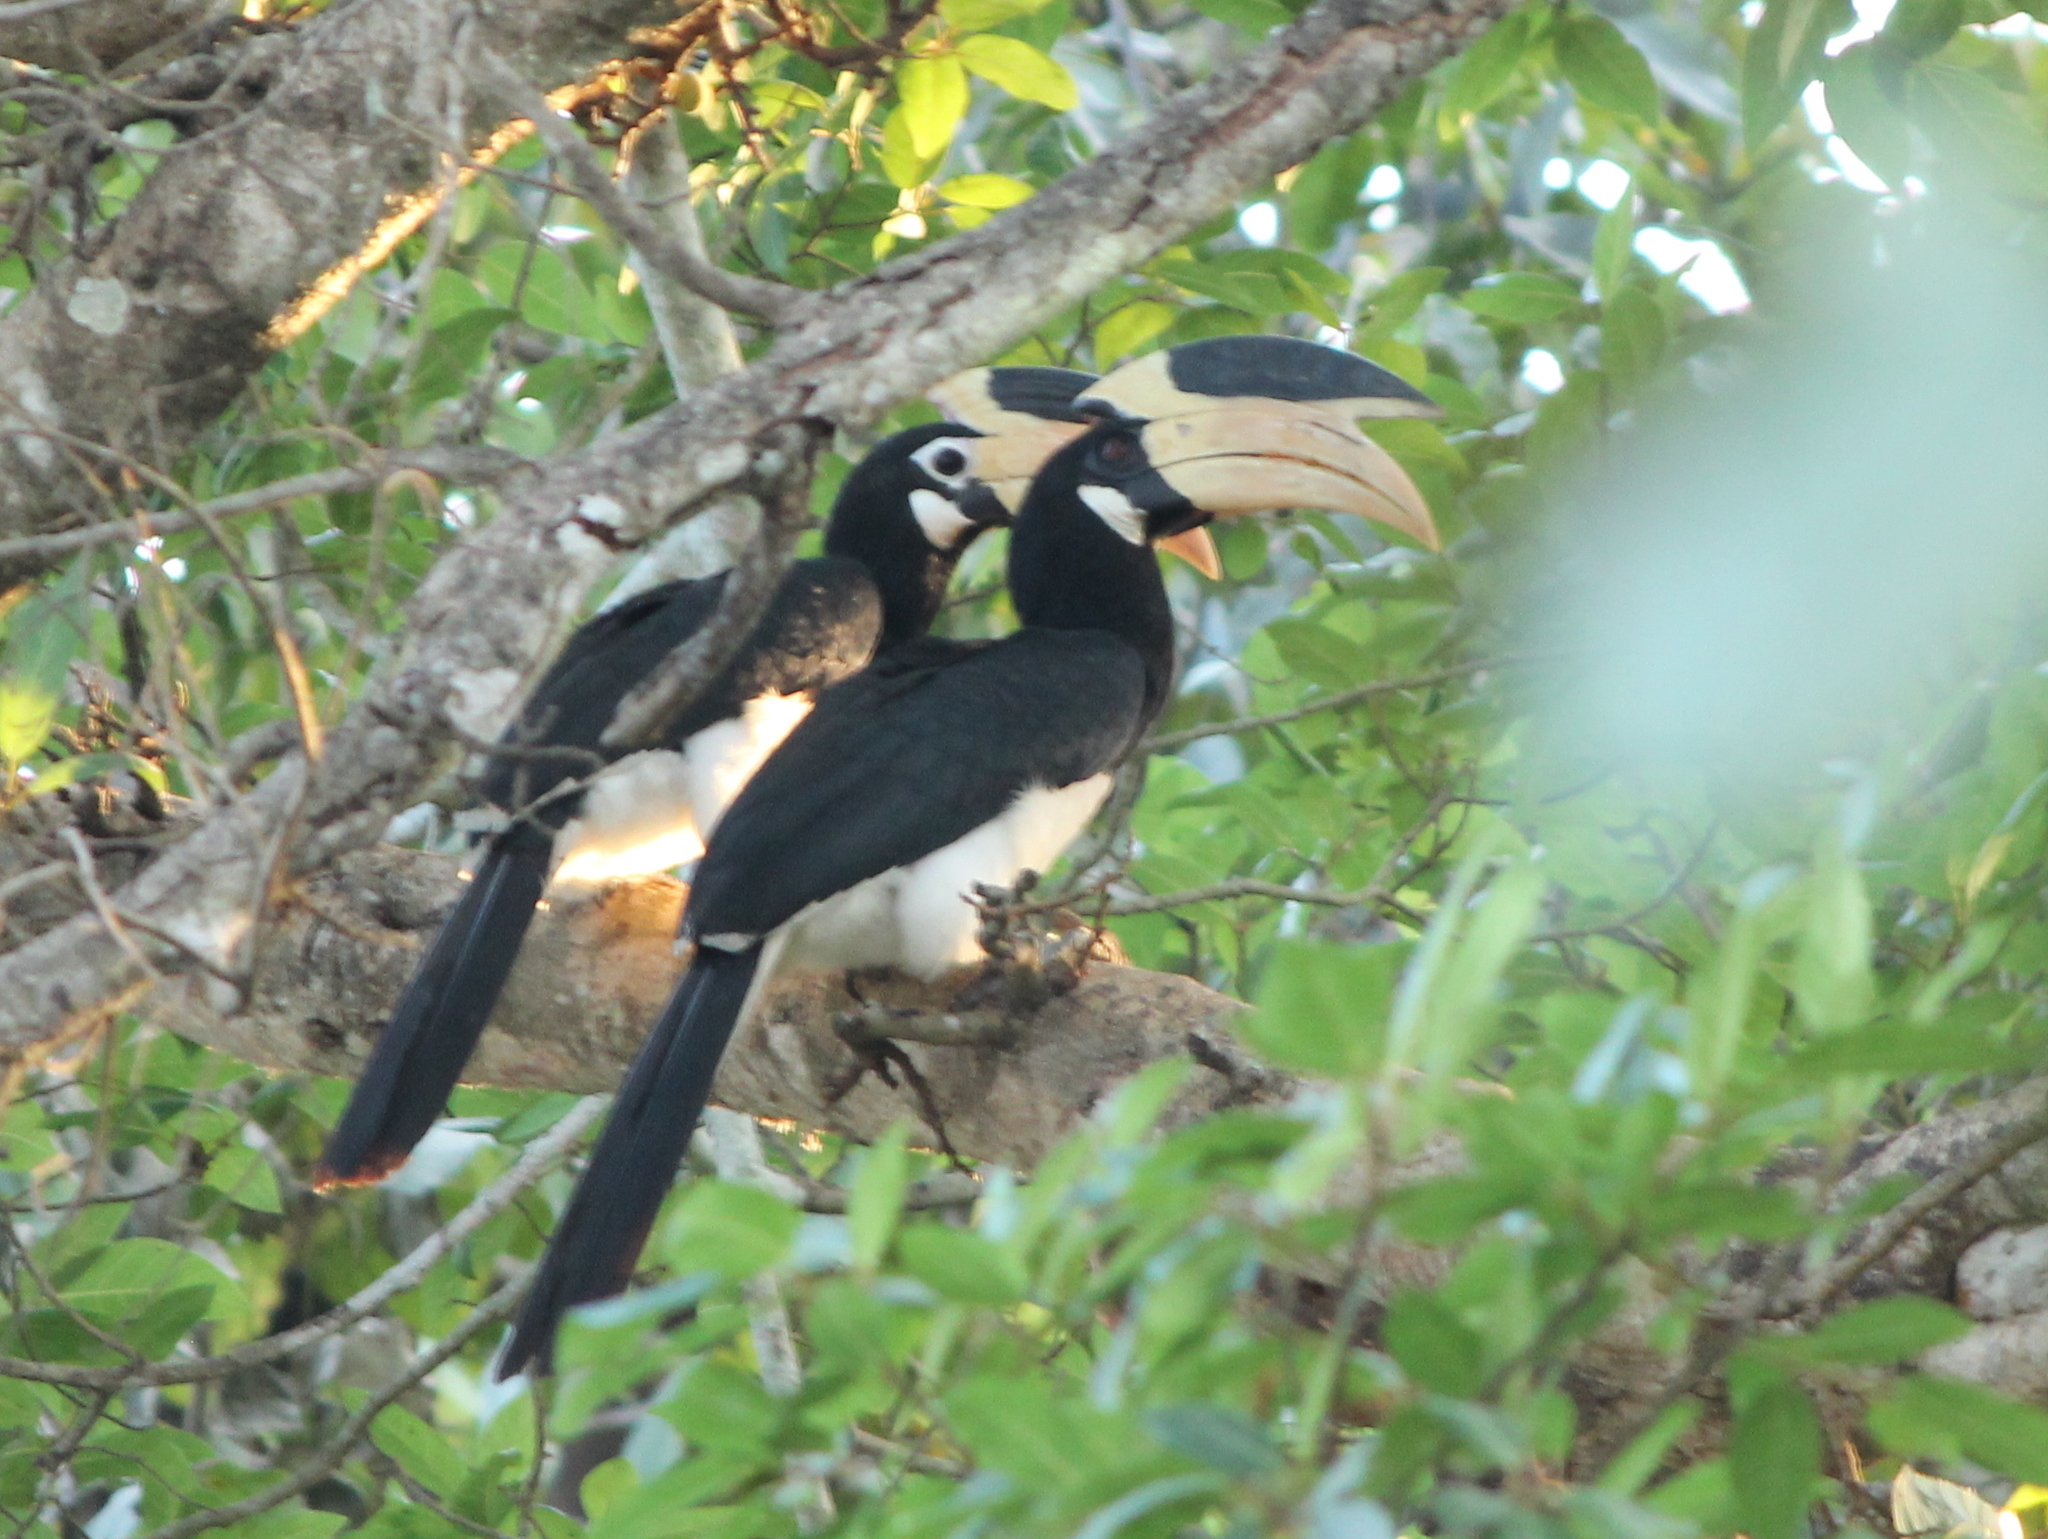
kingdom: Animalia
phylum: Chordata
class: Aves
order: Bucerotiformes
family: Bucerotidae
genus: Anthracoceros
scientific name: Anthracoceros coronatus
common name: Malabar pied hornbill
